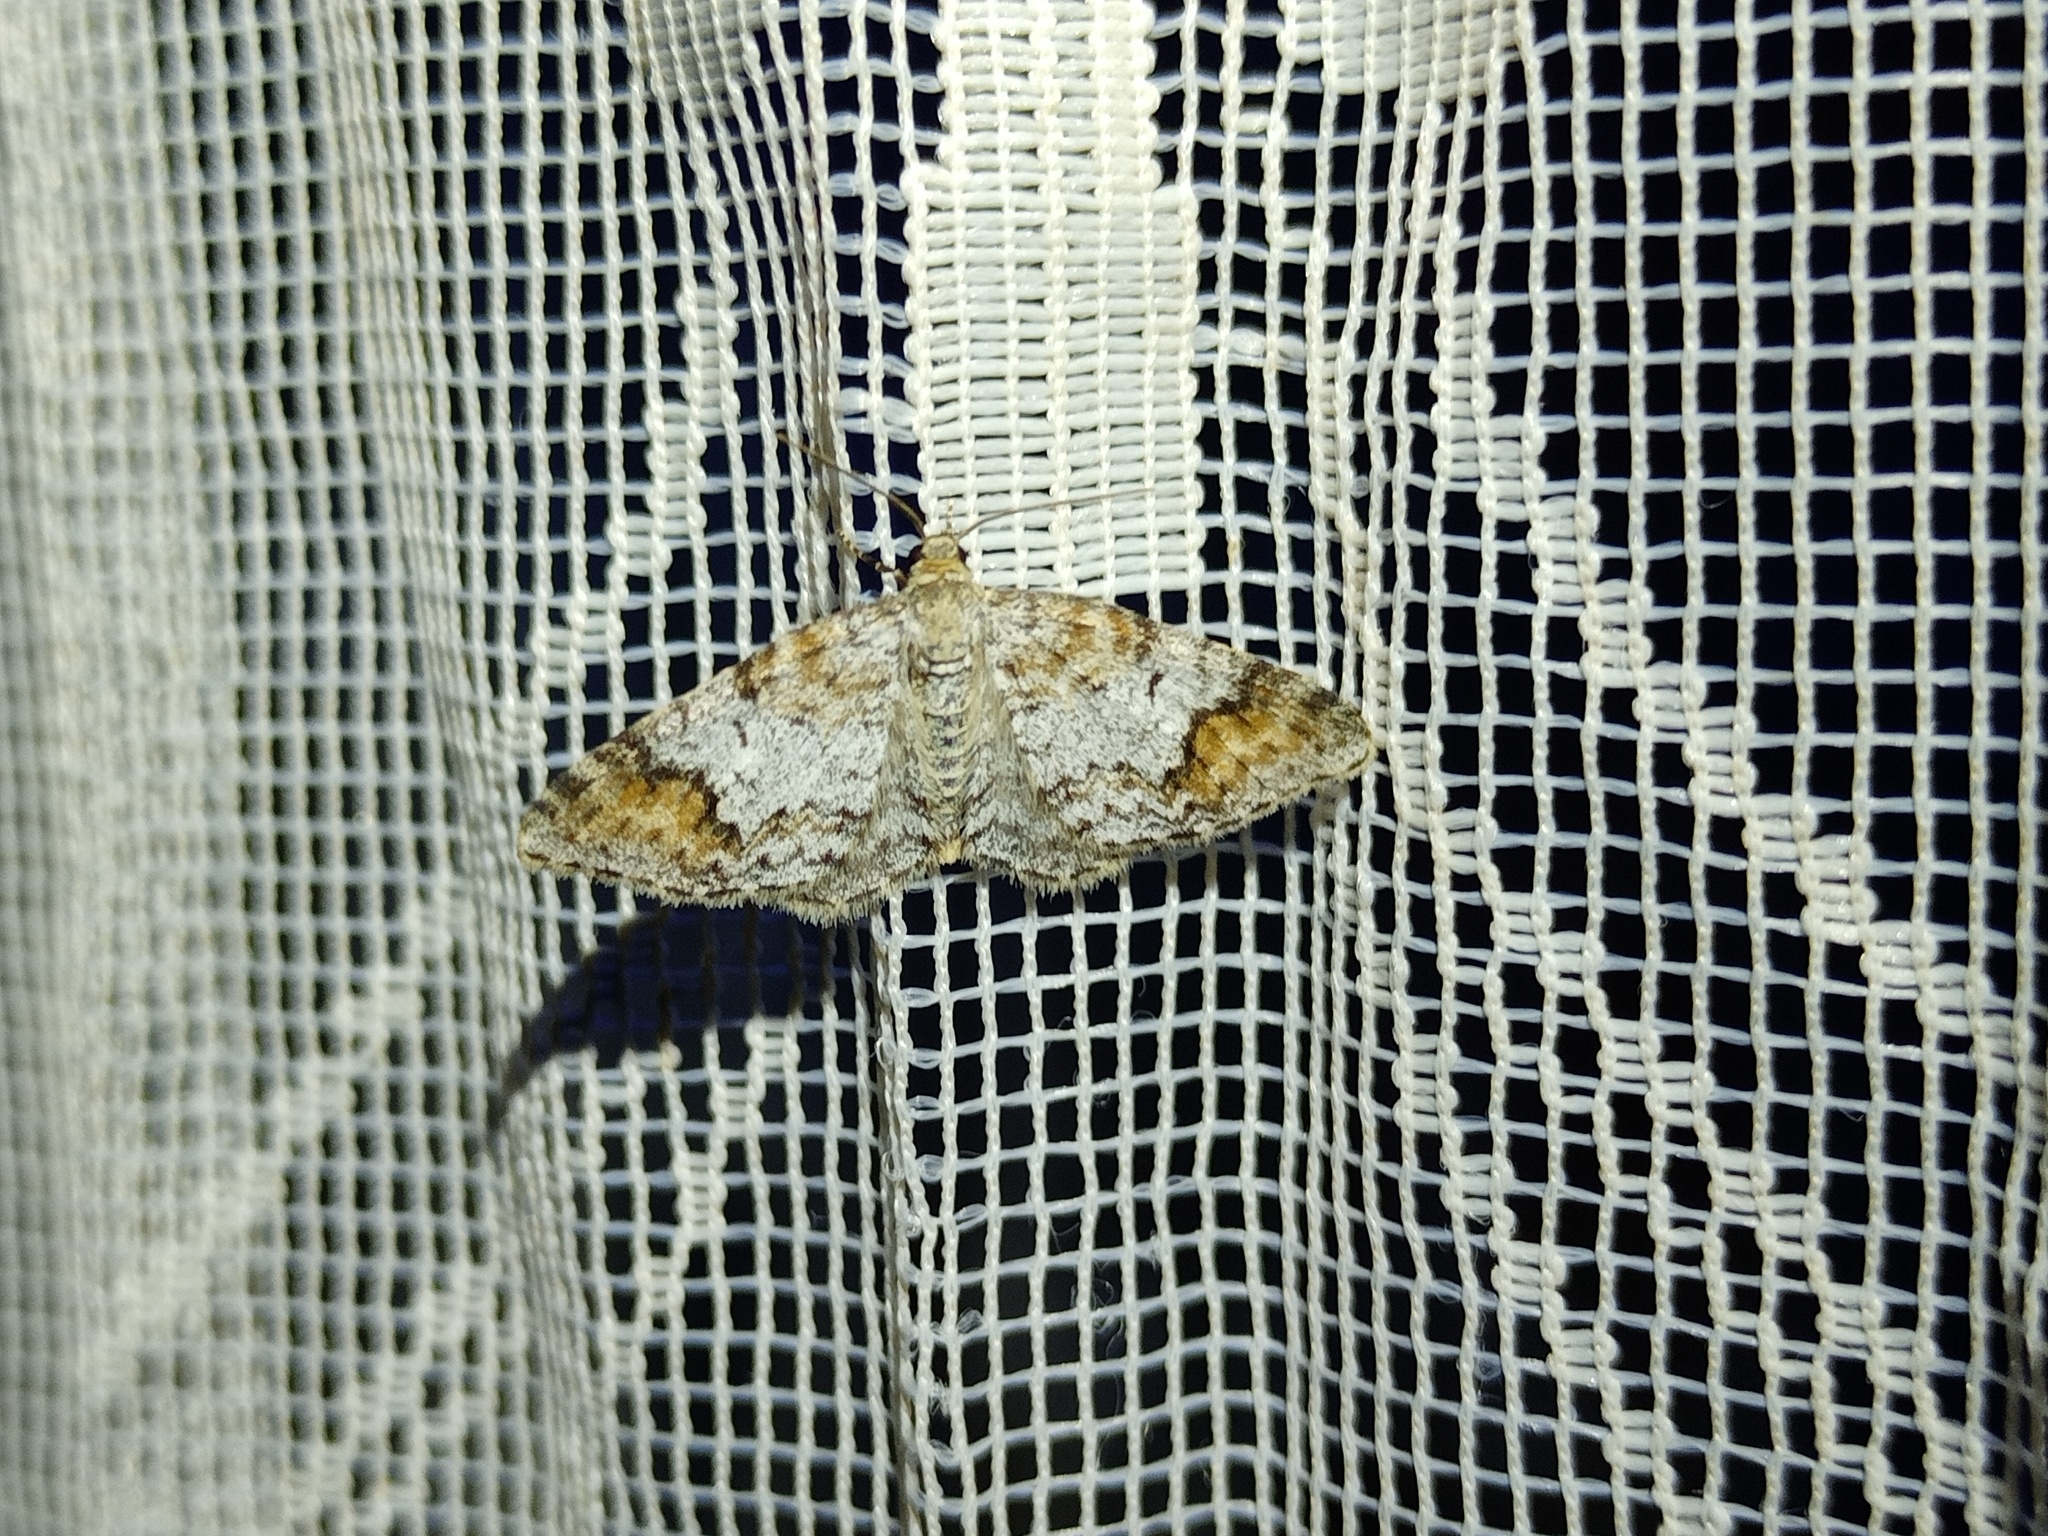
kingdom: Animalia
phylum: Arthropoda
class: Insecta
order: Lepidoptera
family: Geometridae
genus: Venusia
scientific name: Venusia blomeri
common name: Blomer's rivulet
